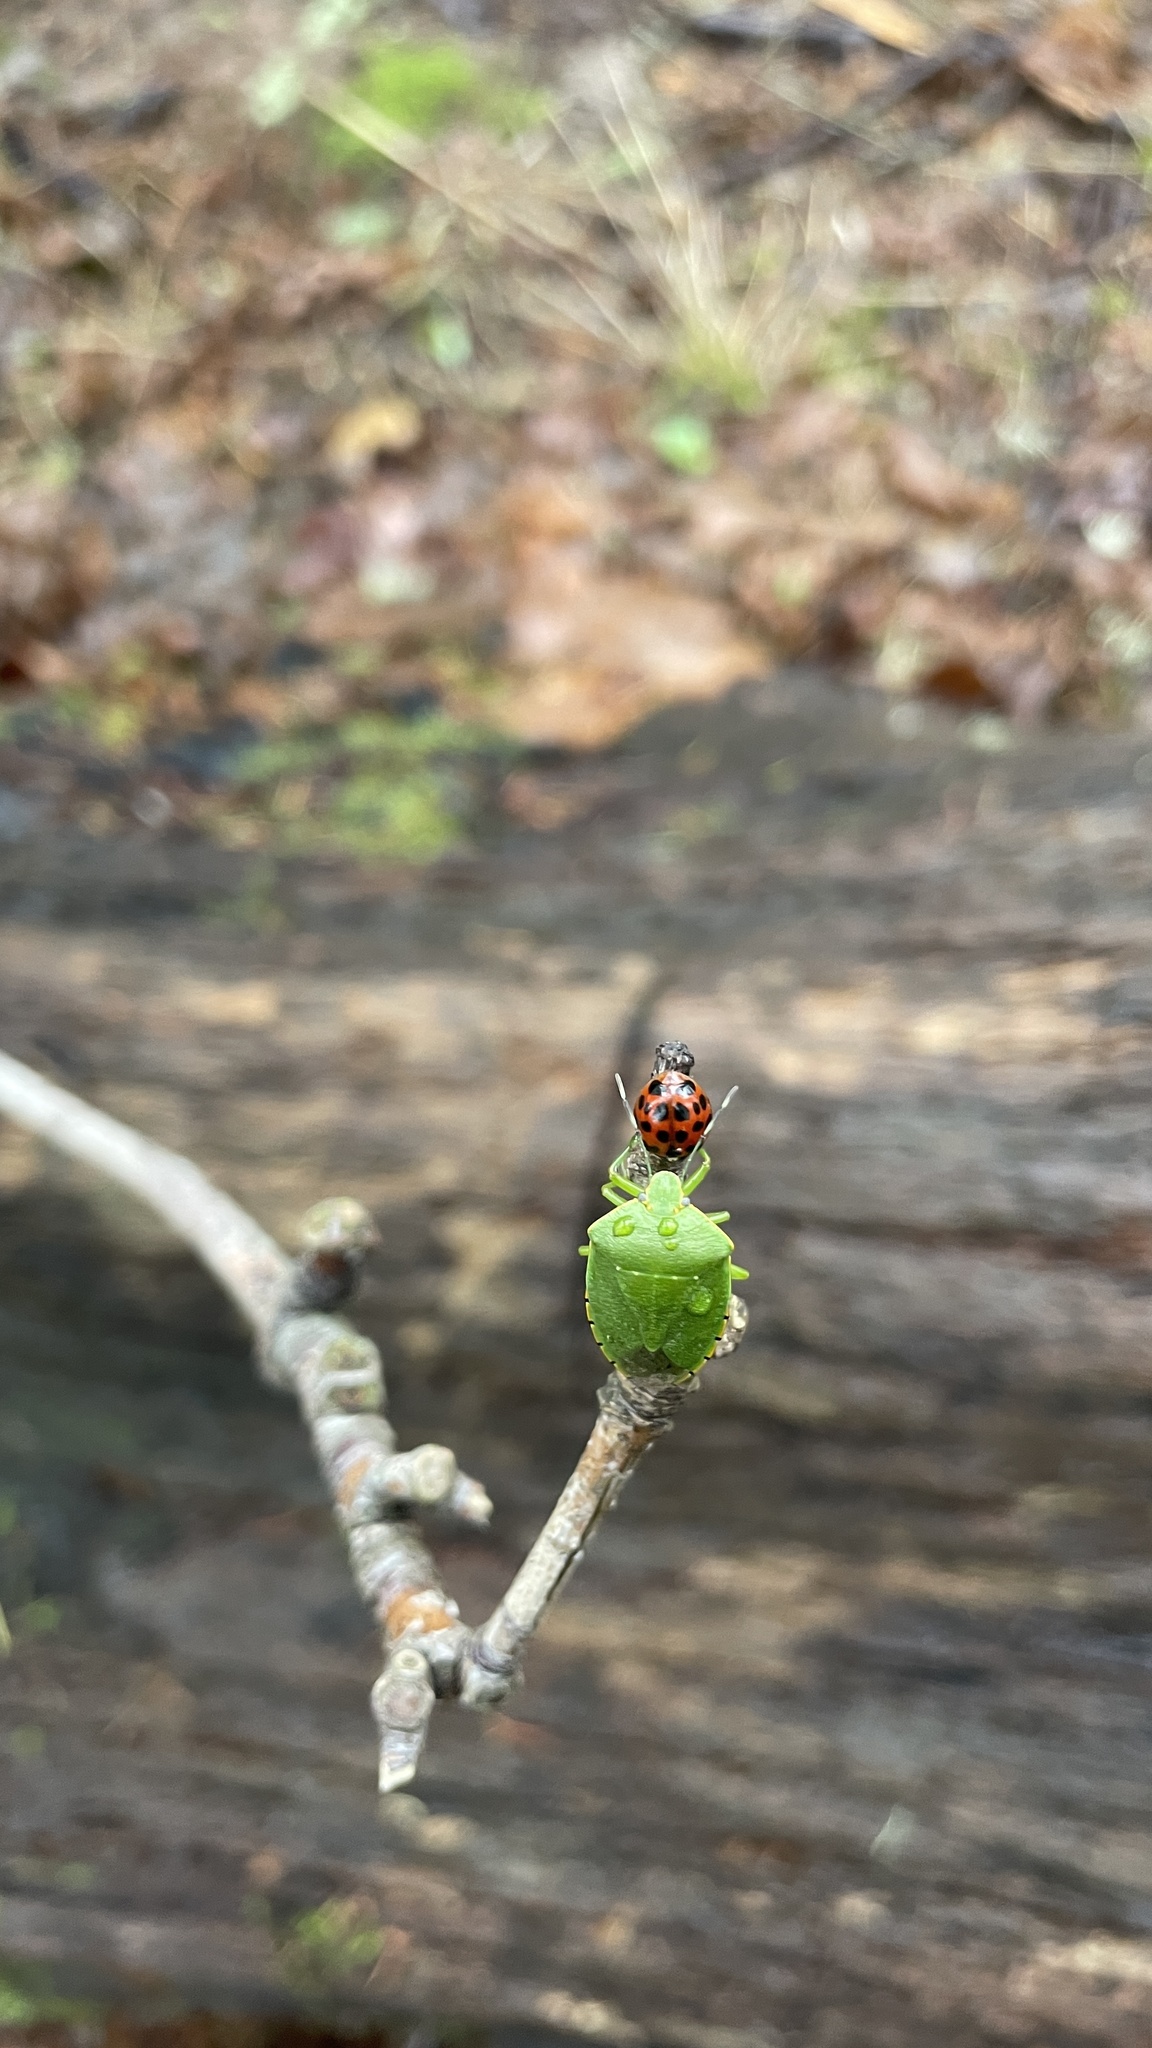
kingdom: Animalia
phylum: Arthropoda
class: Insecta
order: Coleoptera
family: Coccinellidae
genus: Harmonia
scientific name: Harmonia axyridis
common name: Harlequin ladybird
